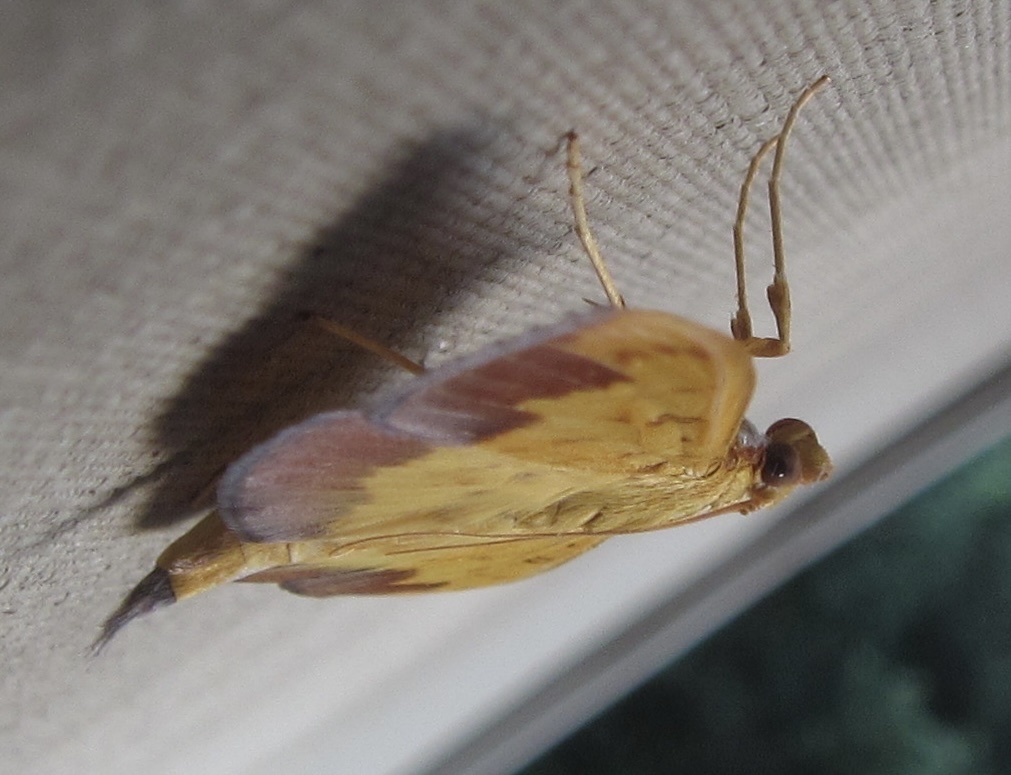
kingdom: Animalia
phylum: Arthropoda
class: Insecta
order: Lepidoptera
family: Crambidae
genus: Botyodes
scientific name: Botyodes asialis
